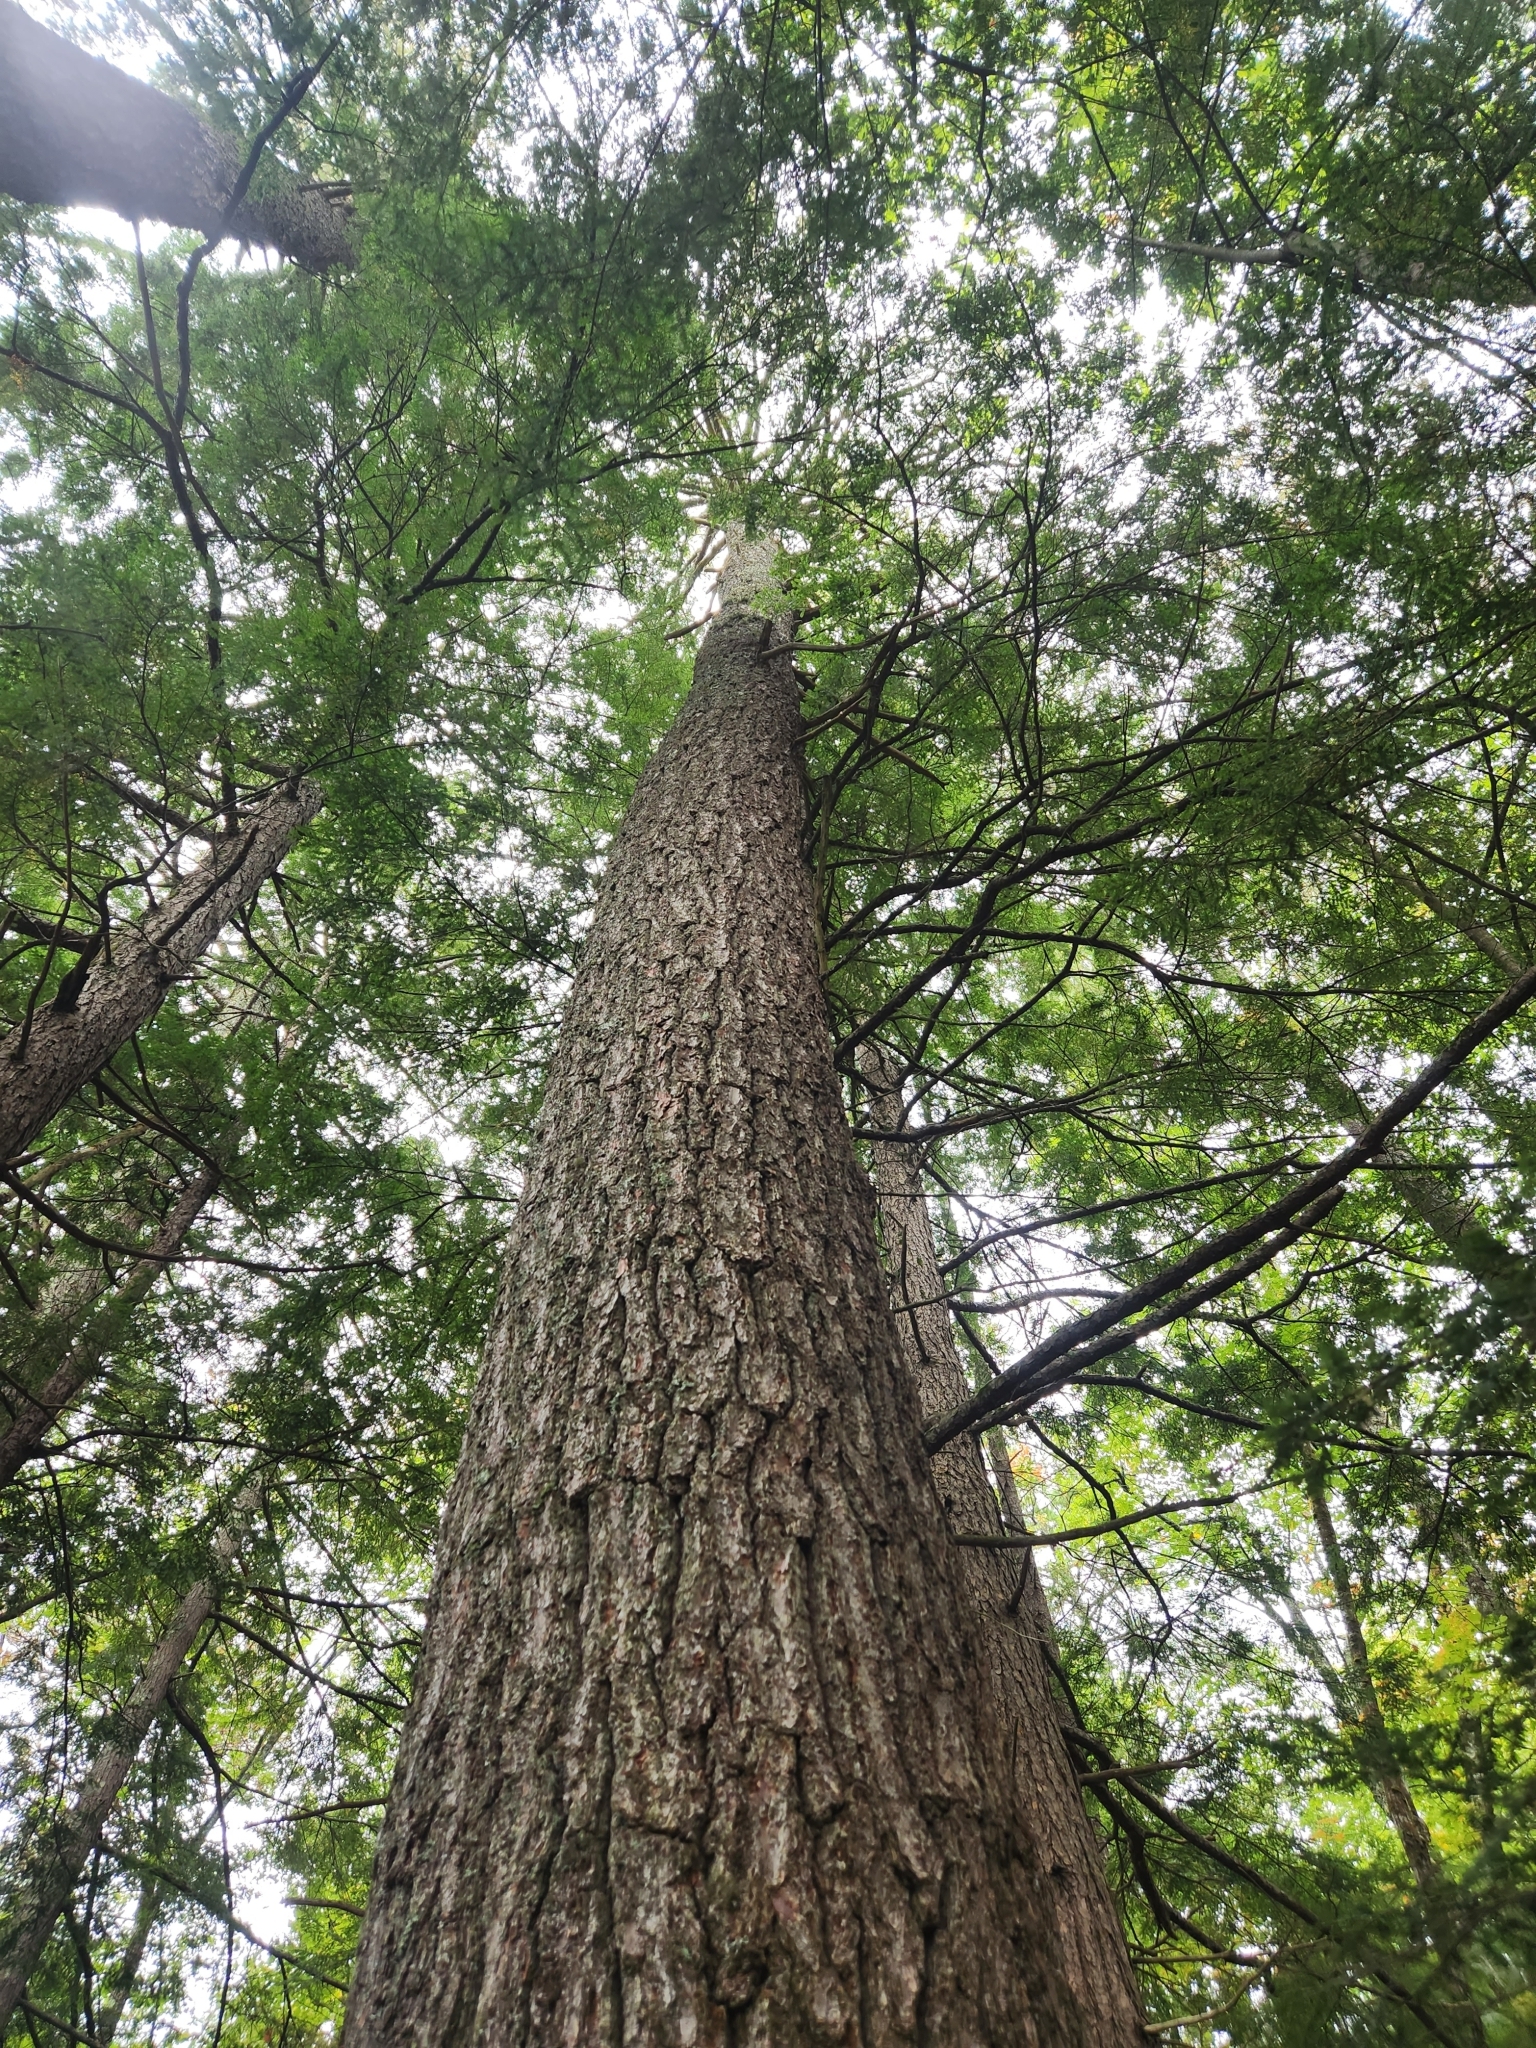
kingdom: Plantae
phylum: Tracheophyta
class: Pinopsida
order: Pinales
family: Pinaceae
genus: Pinus
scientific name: Pinus strobus
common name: Weymouth pine
